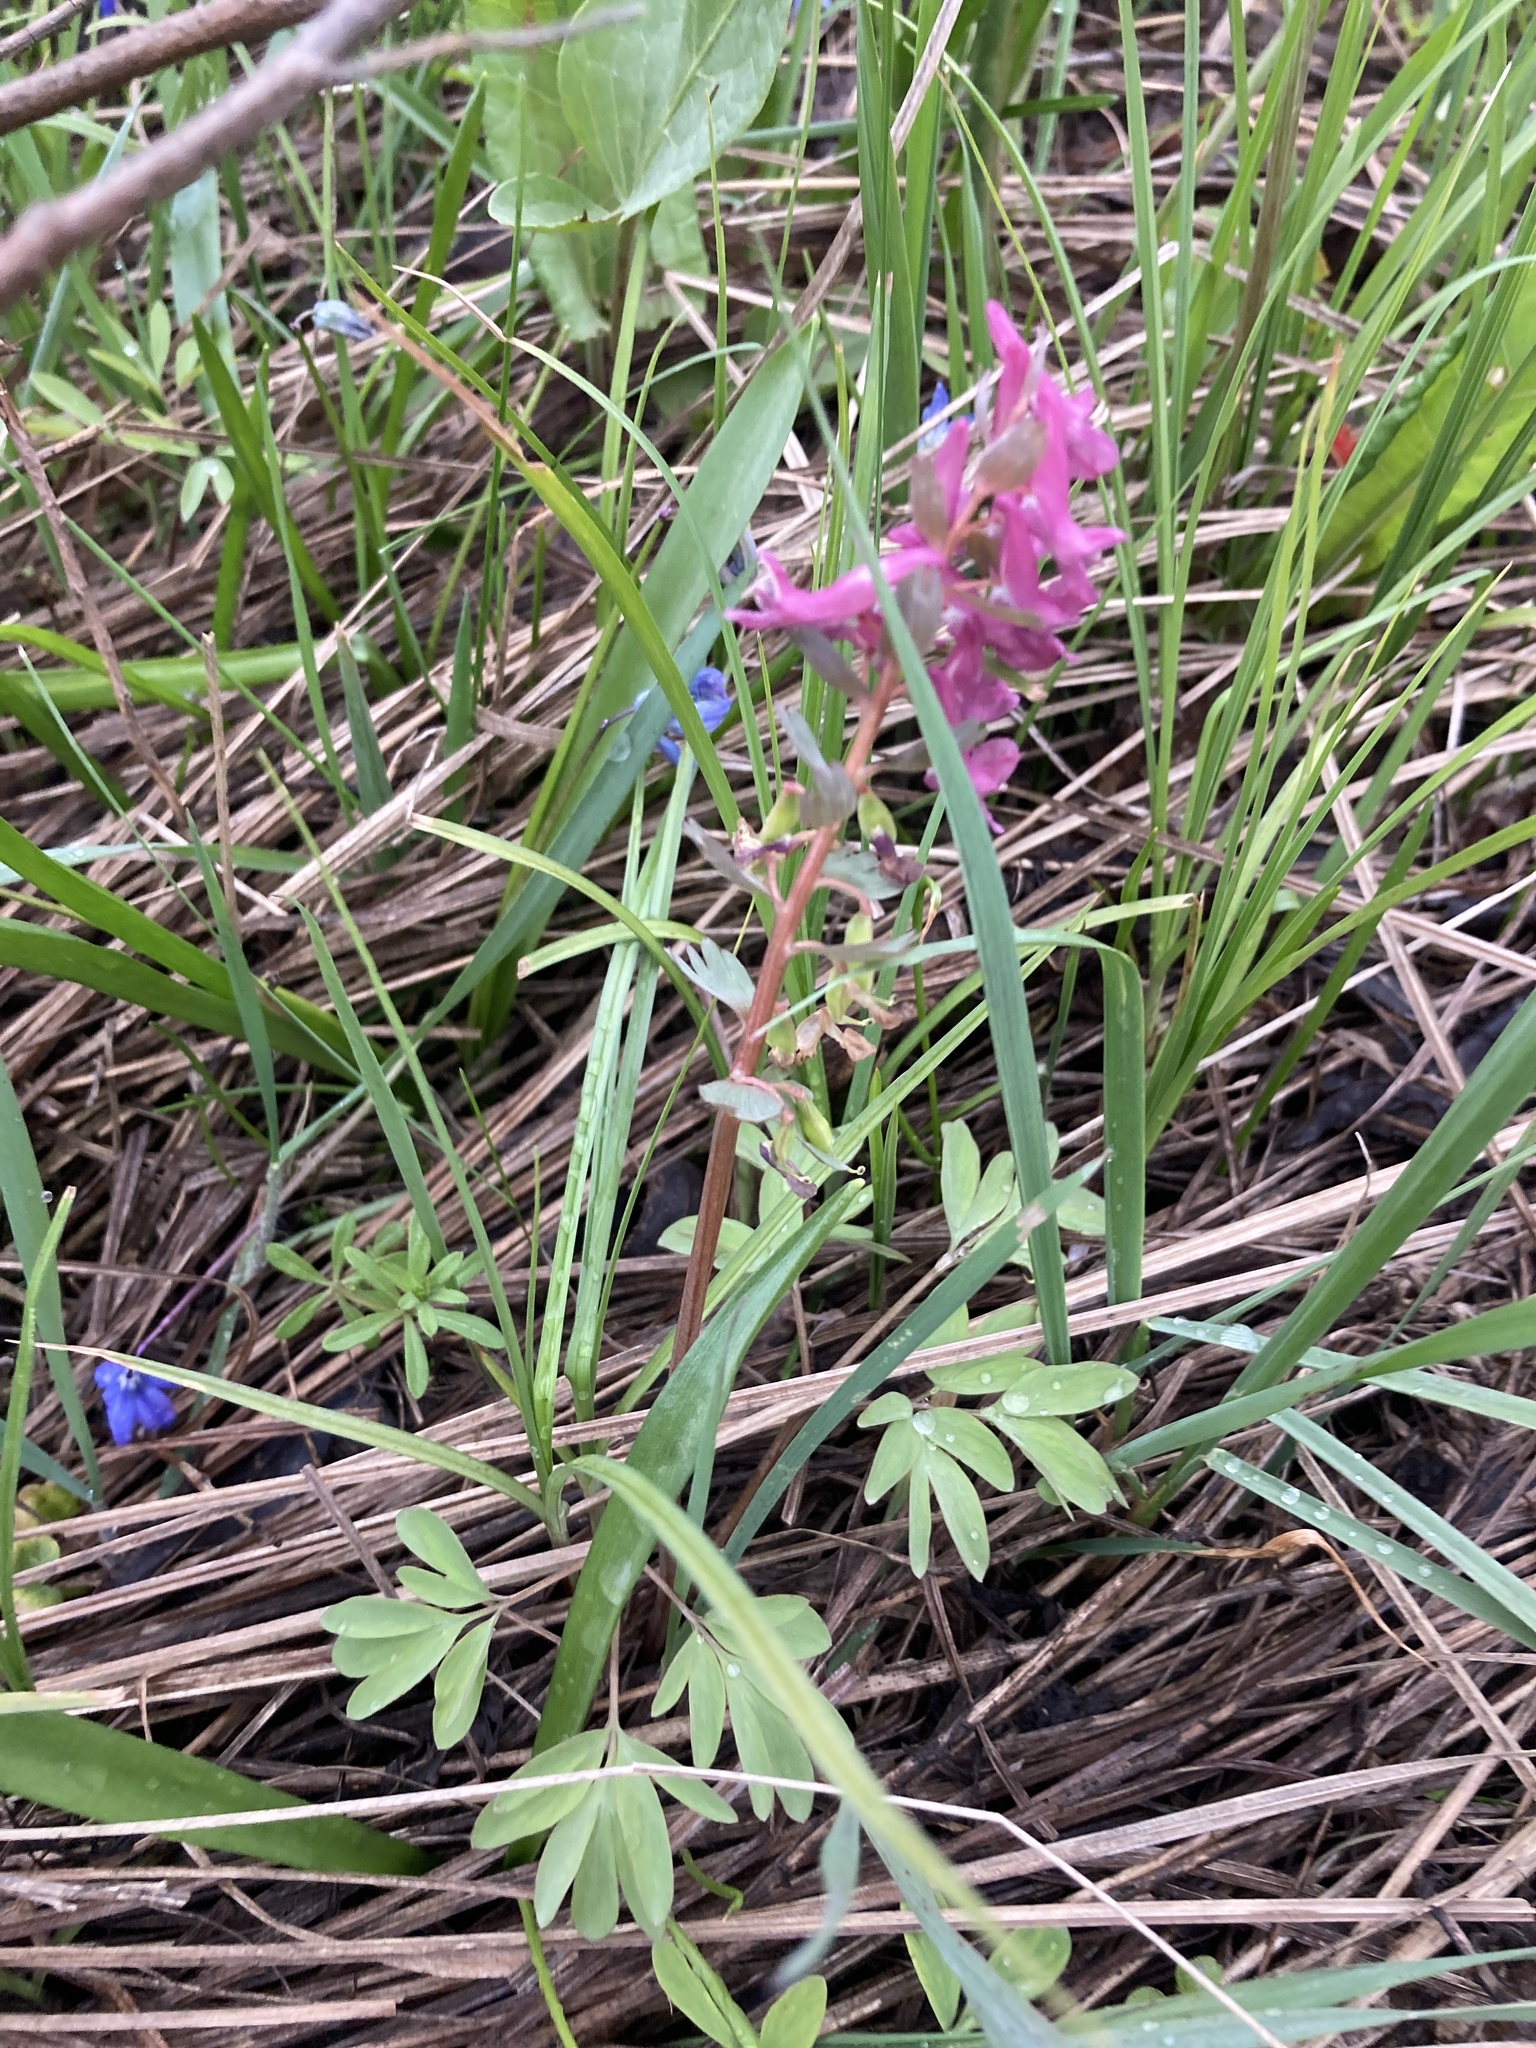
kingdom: Plantae
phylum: Tracheophyta
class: Magnoliopsida
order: Ranunculales
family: Papaveraceae
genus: Corydalis
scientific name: Corydalis solida
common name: Bird-in-a-bush
